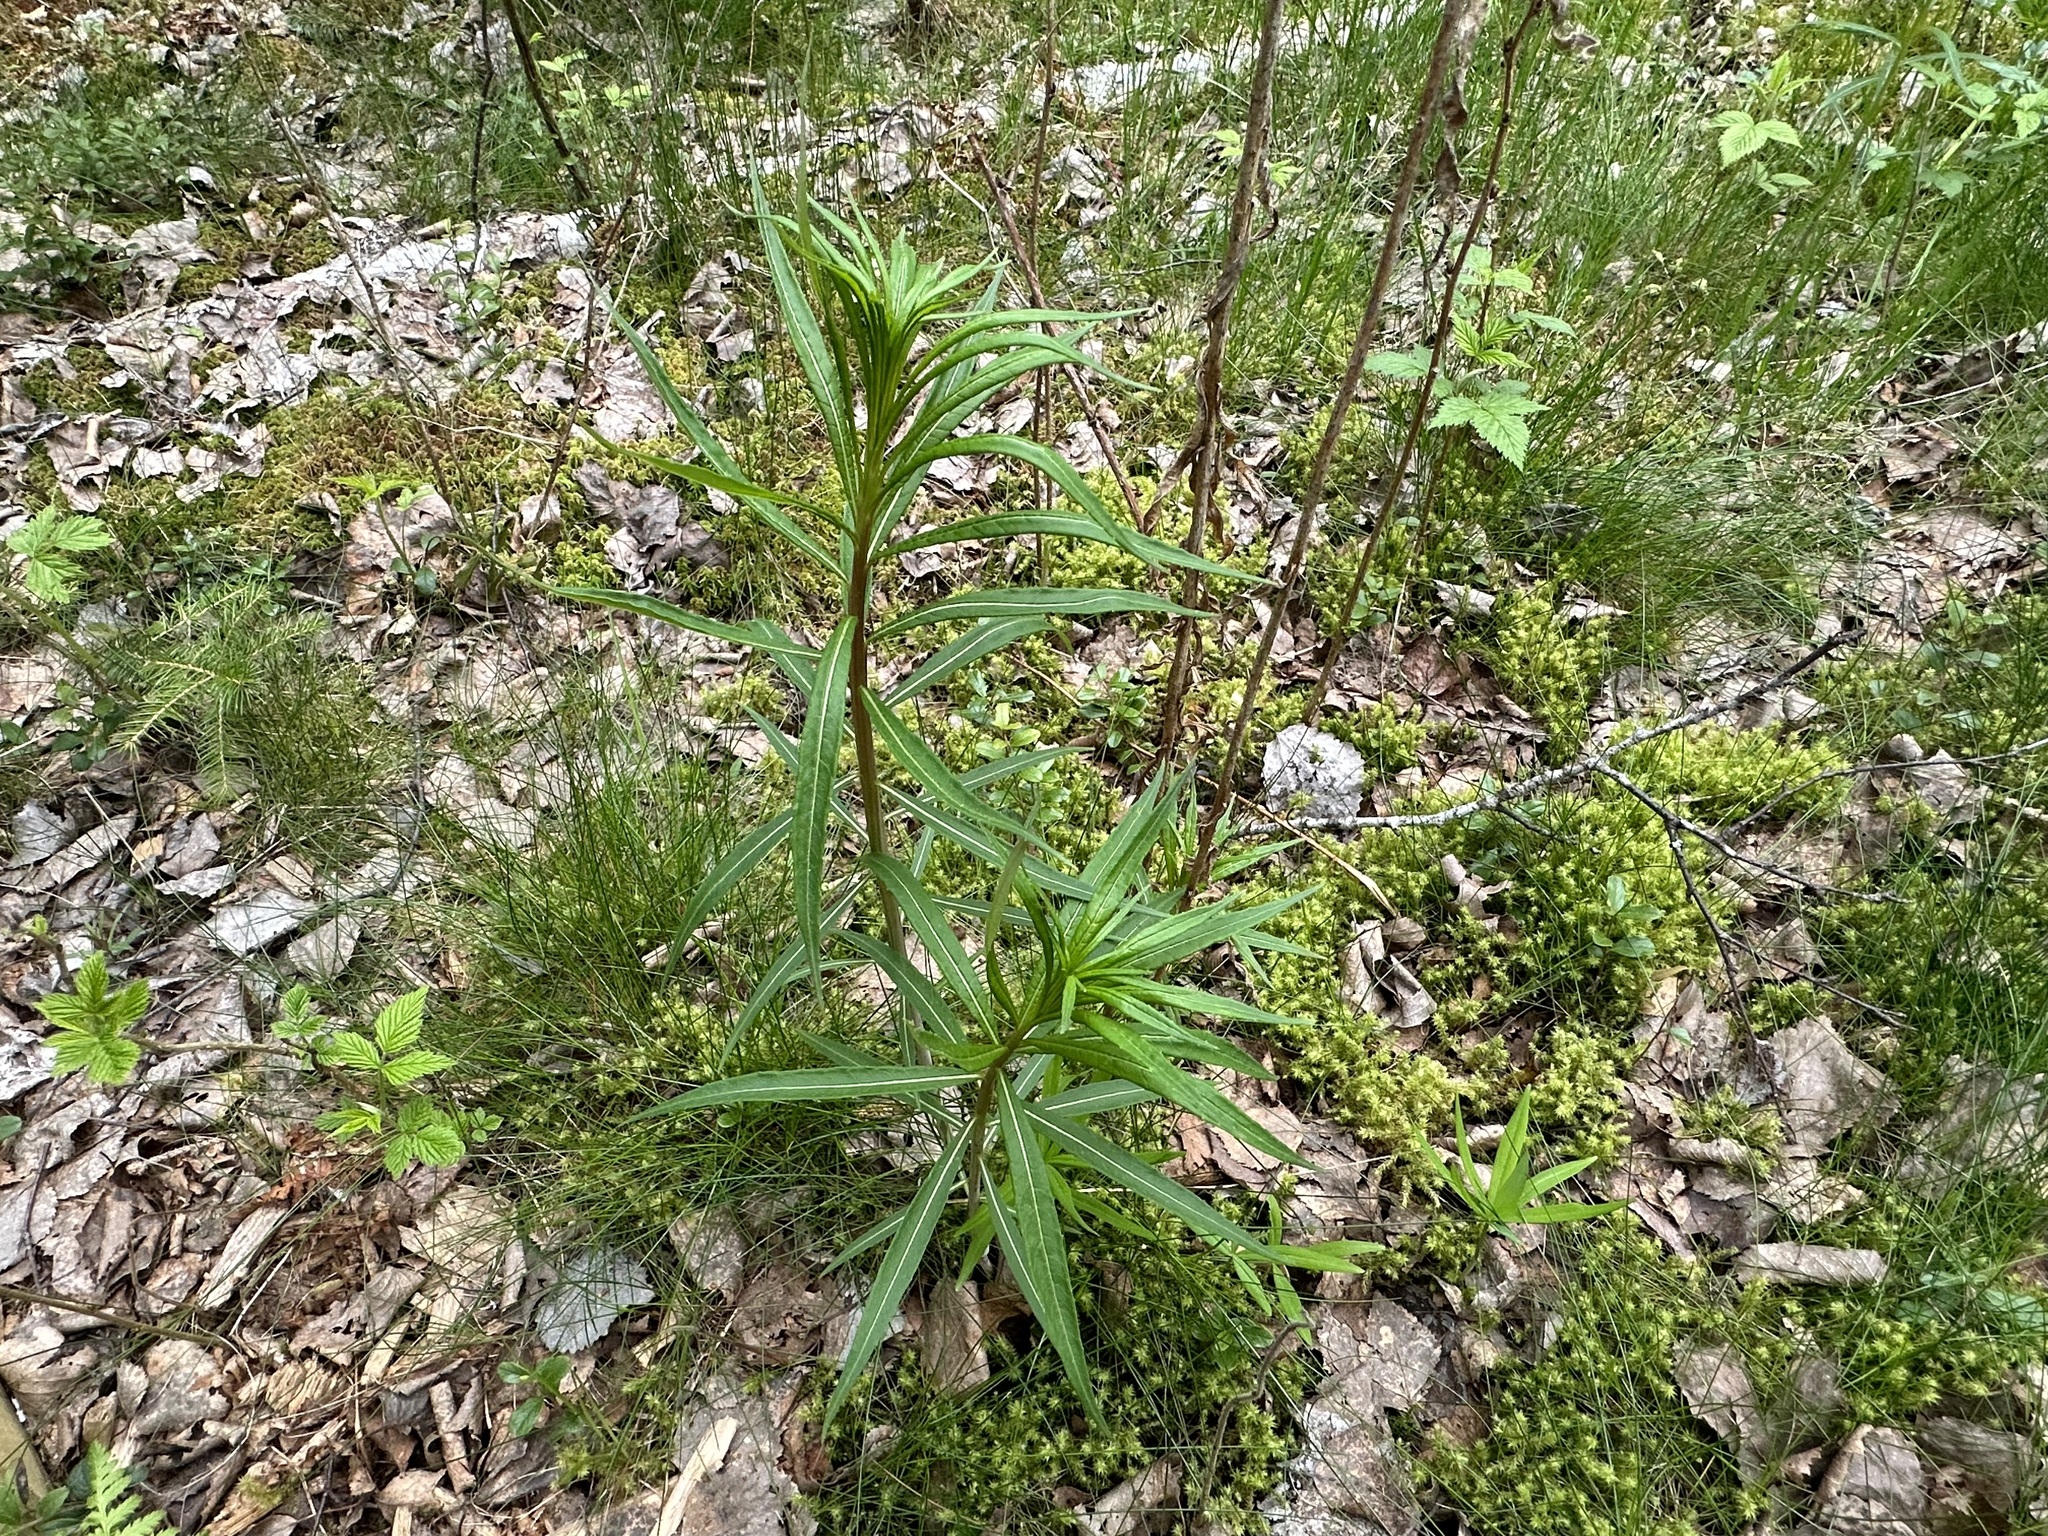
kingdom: Plantae
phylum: Tracheophyta
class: Magnoliopsida
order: Myrtales
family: Onagraceae
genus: Chamaenerion
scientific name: Chamaenerion angustifolium
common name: Fireweed
